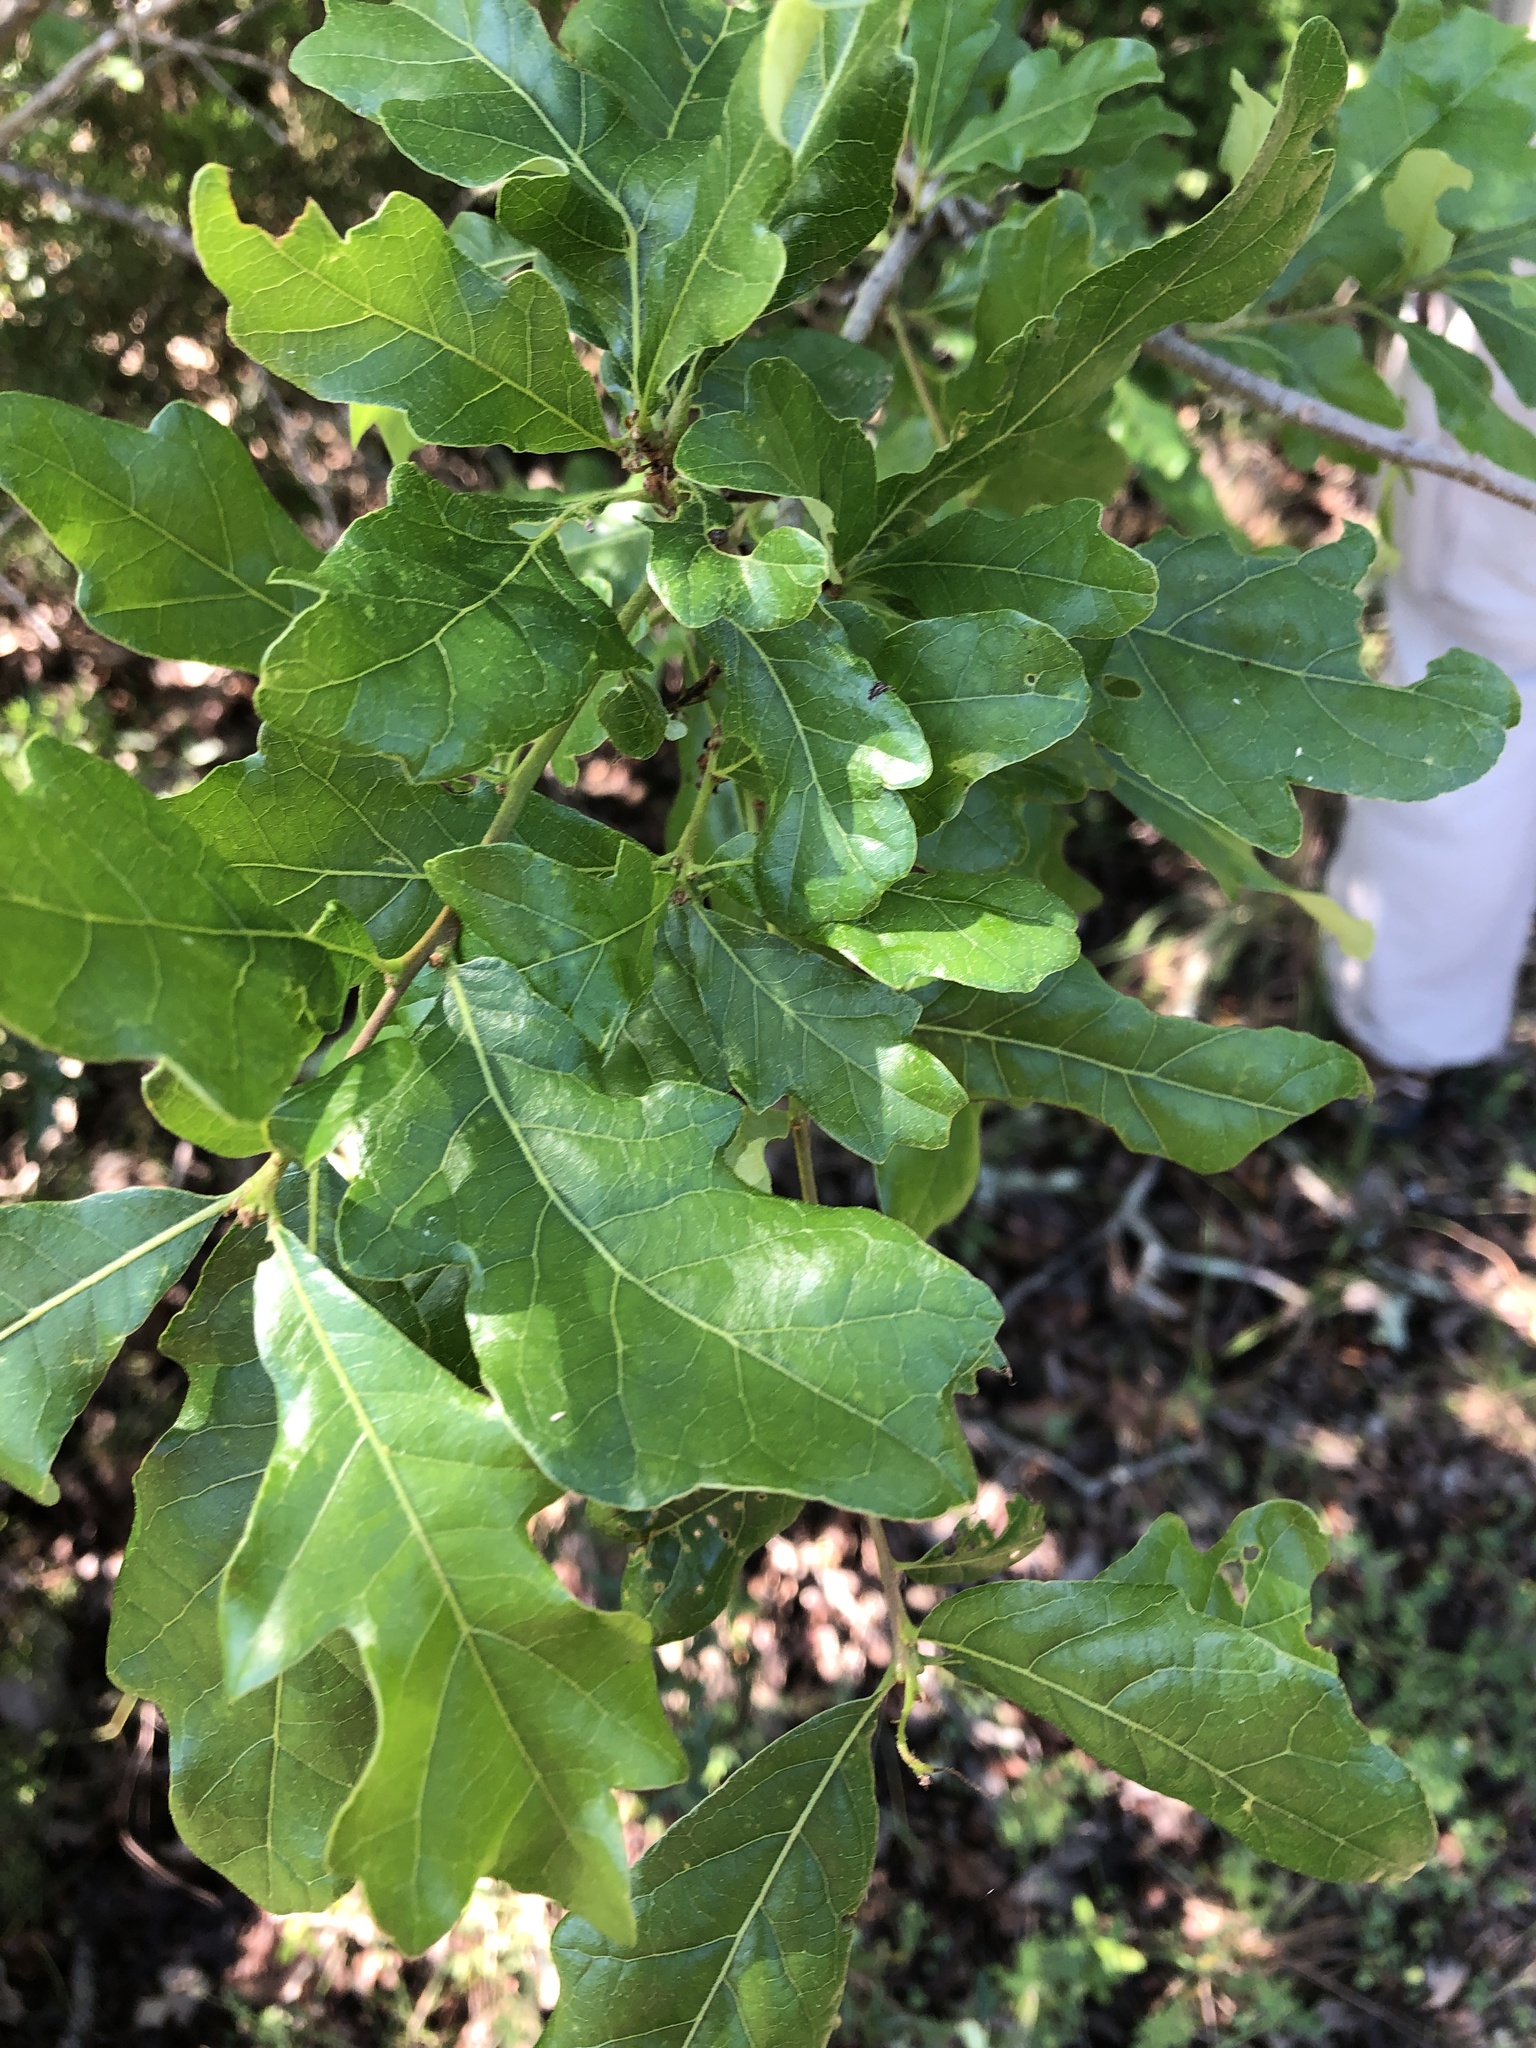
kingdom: Plantae
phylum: Tracheophyta
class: Magnoliopsida
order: Fagales
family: Fagaceae
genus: Quercus
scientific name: Quercus sinuata
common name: Durand oak
